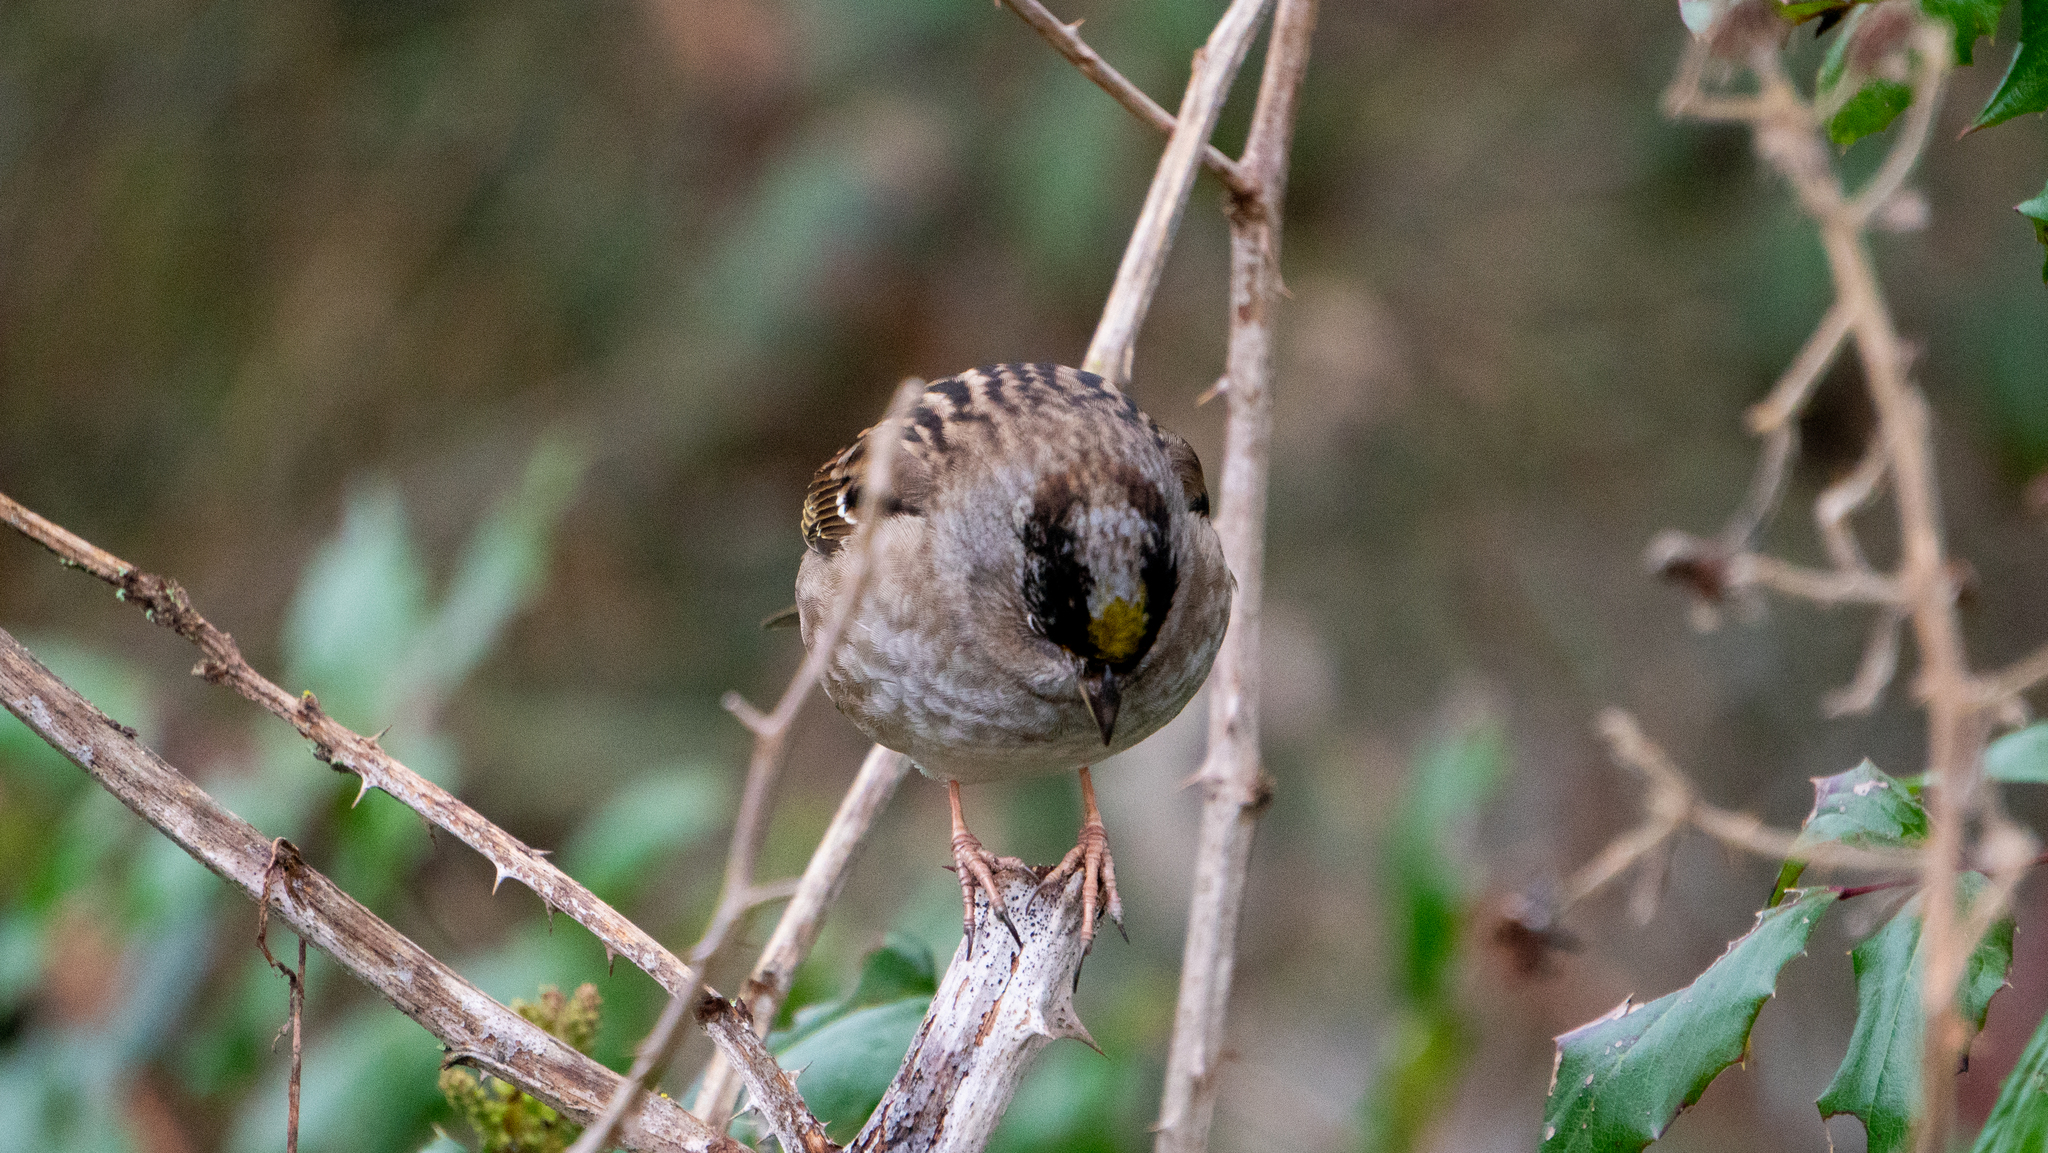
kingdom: Animalia
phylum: Chordata
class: Aves
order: Passeriformes
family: Passerellidae
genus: Zonotrichia
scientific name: Zonotrichia atricapilla
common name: Golden-crowned sparrow
